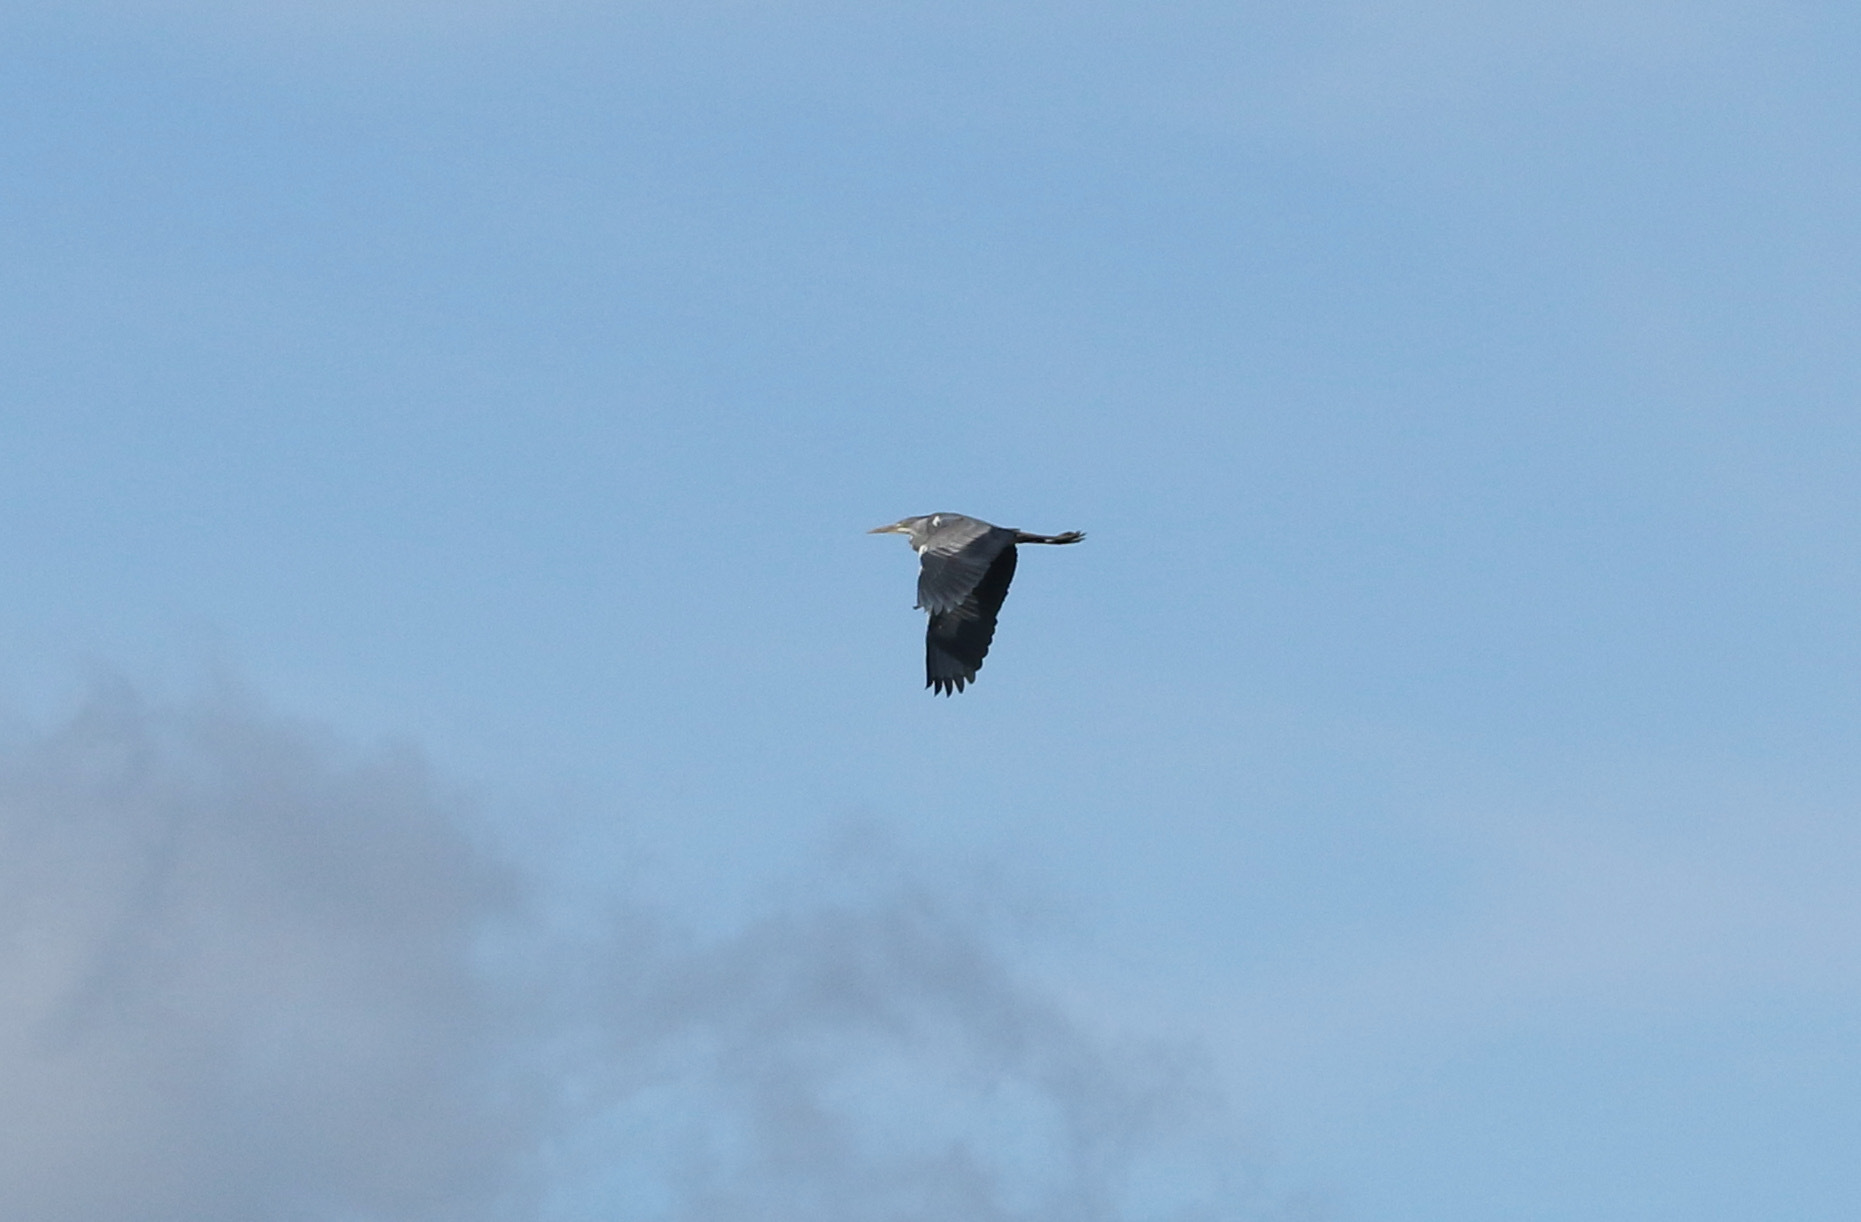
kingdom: Animalia
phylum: Chordata
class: Aves
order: Pelecaniformes
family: Ardeidae
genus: Ardea
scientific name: Ardea cinerea
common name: Grey heron
